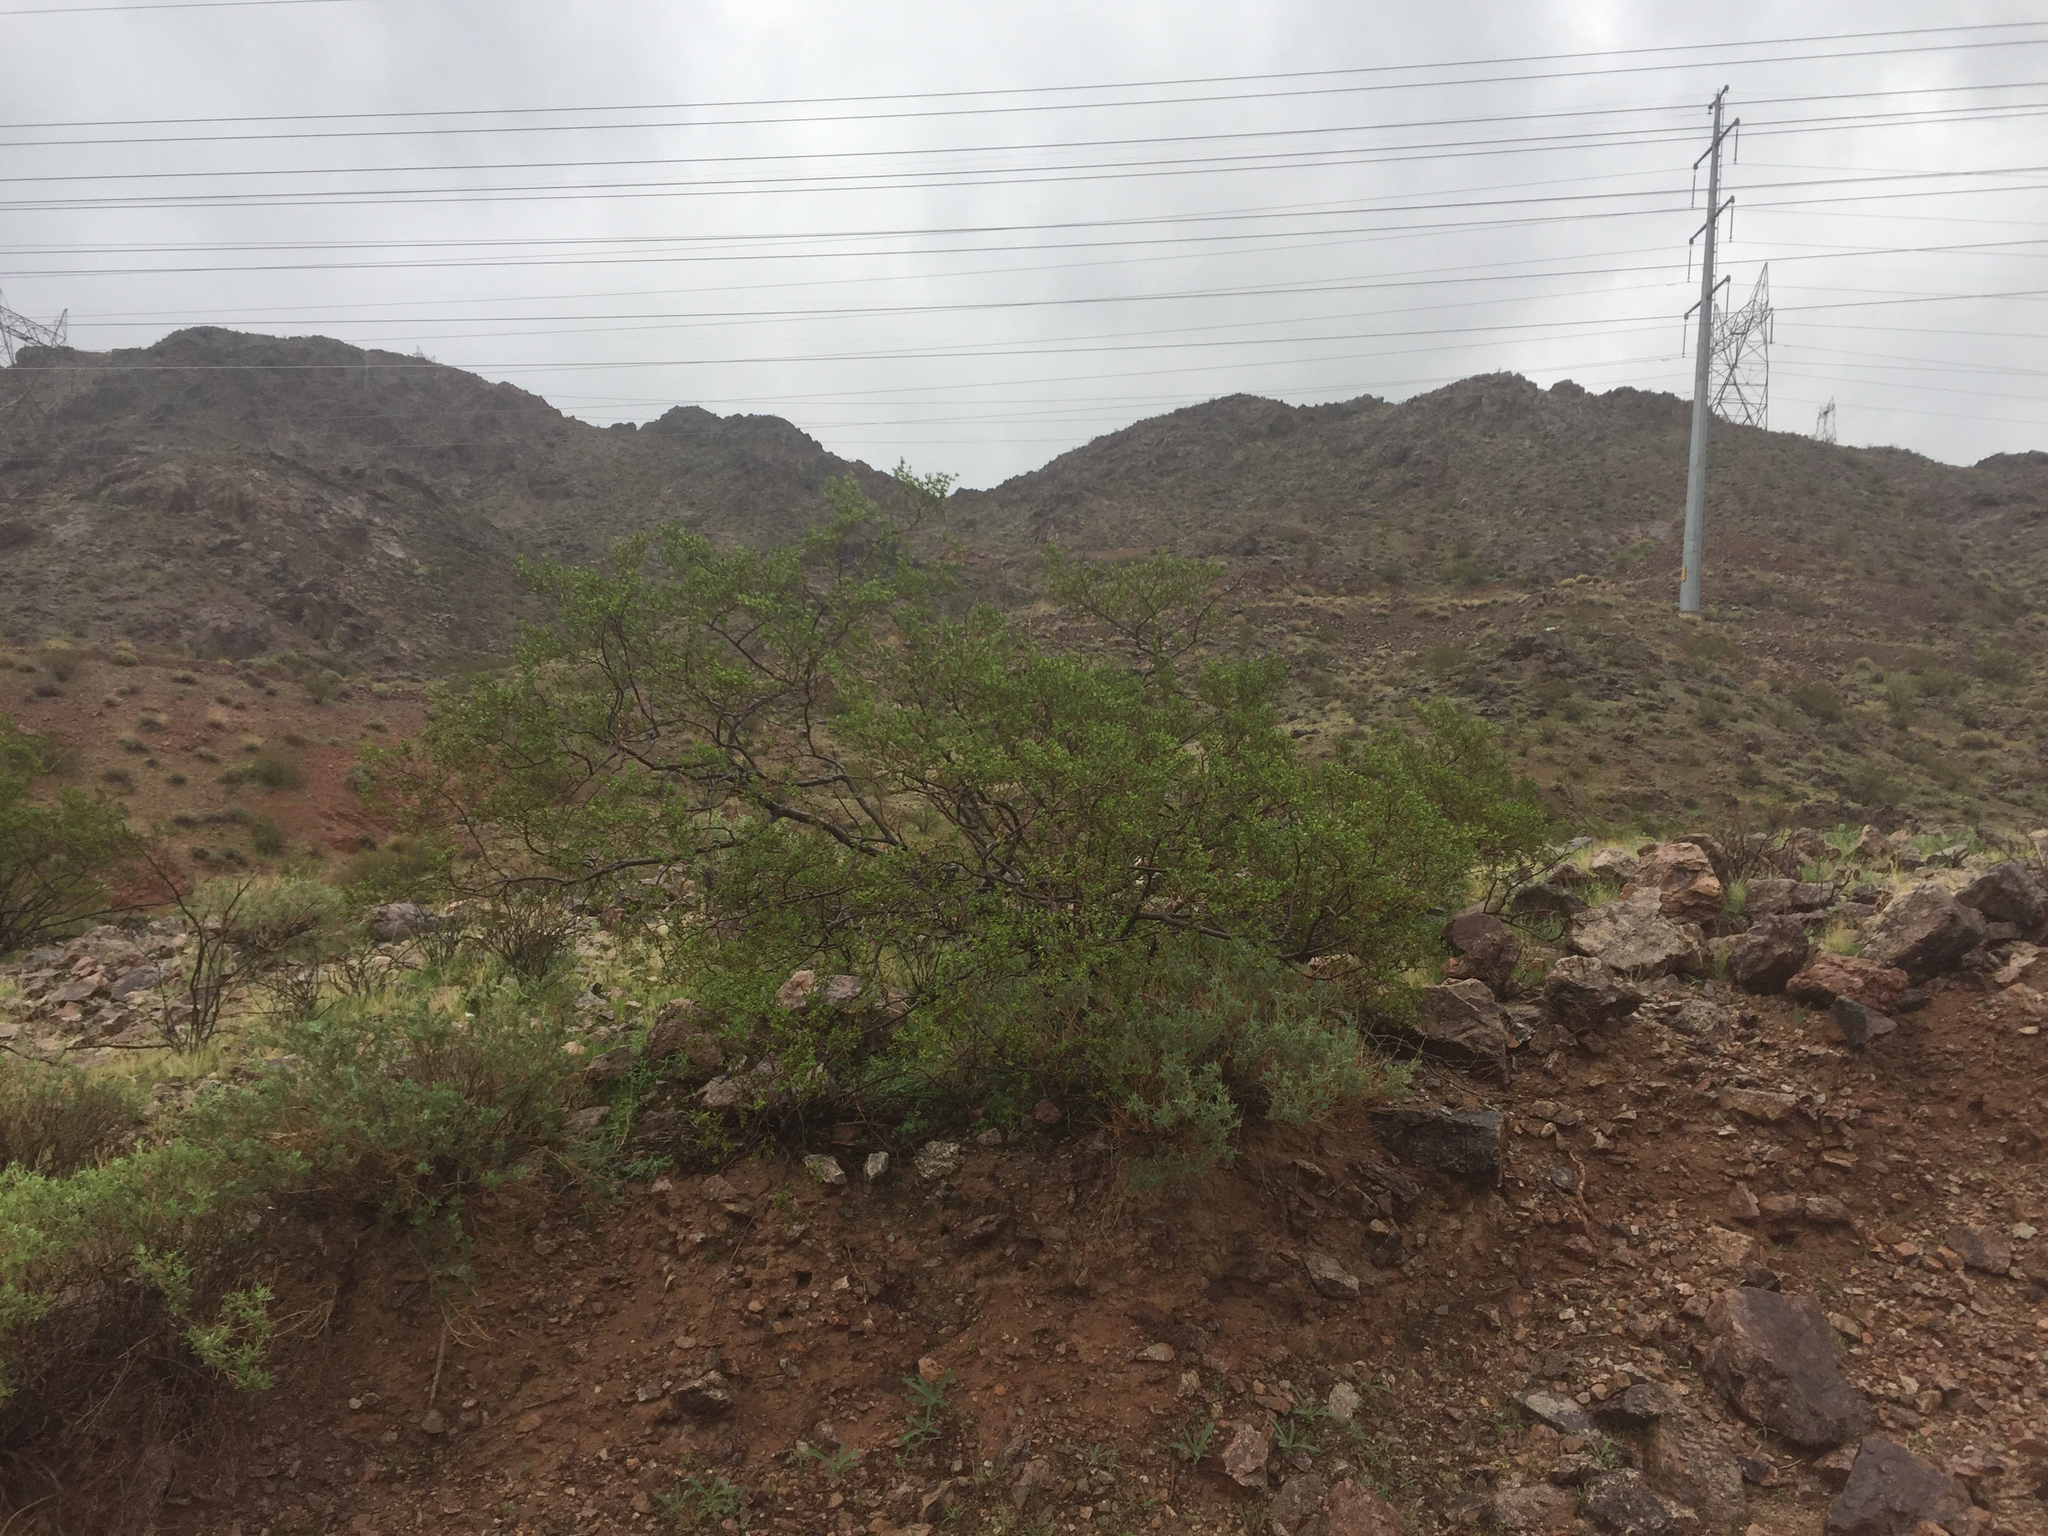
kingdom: Plantae
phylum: Tracheophyta
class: Magnoliopsida
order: Zygophyllales
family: Zygophyllaceae
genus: Larrea
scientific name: Larrea tridentata
